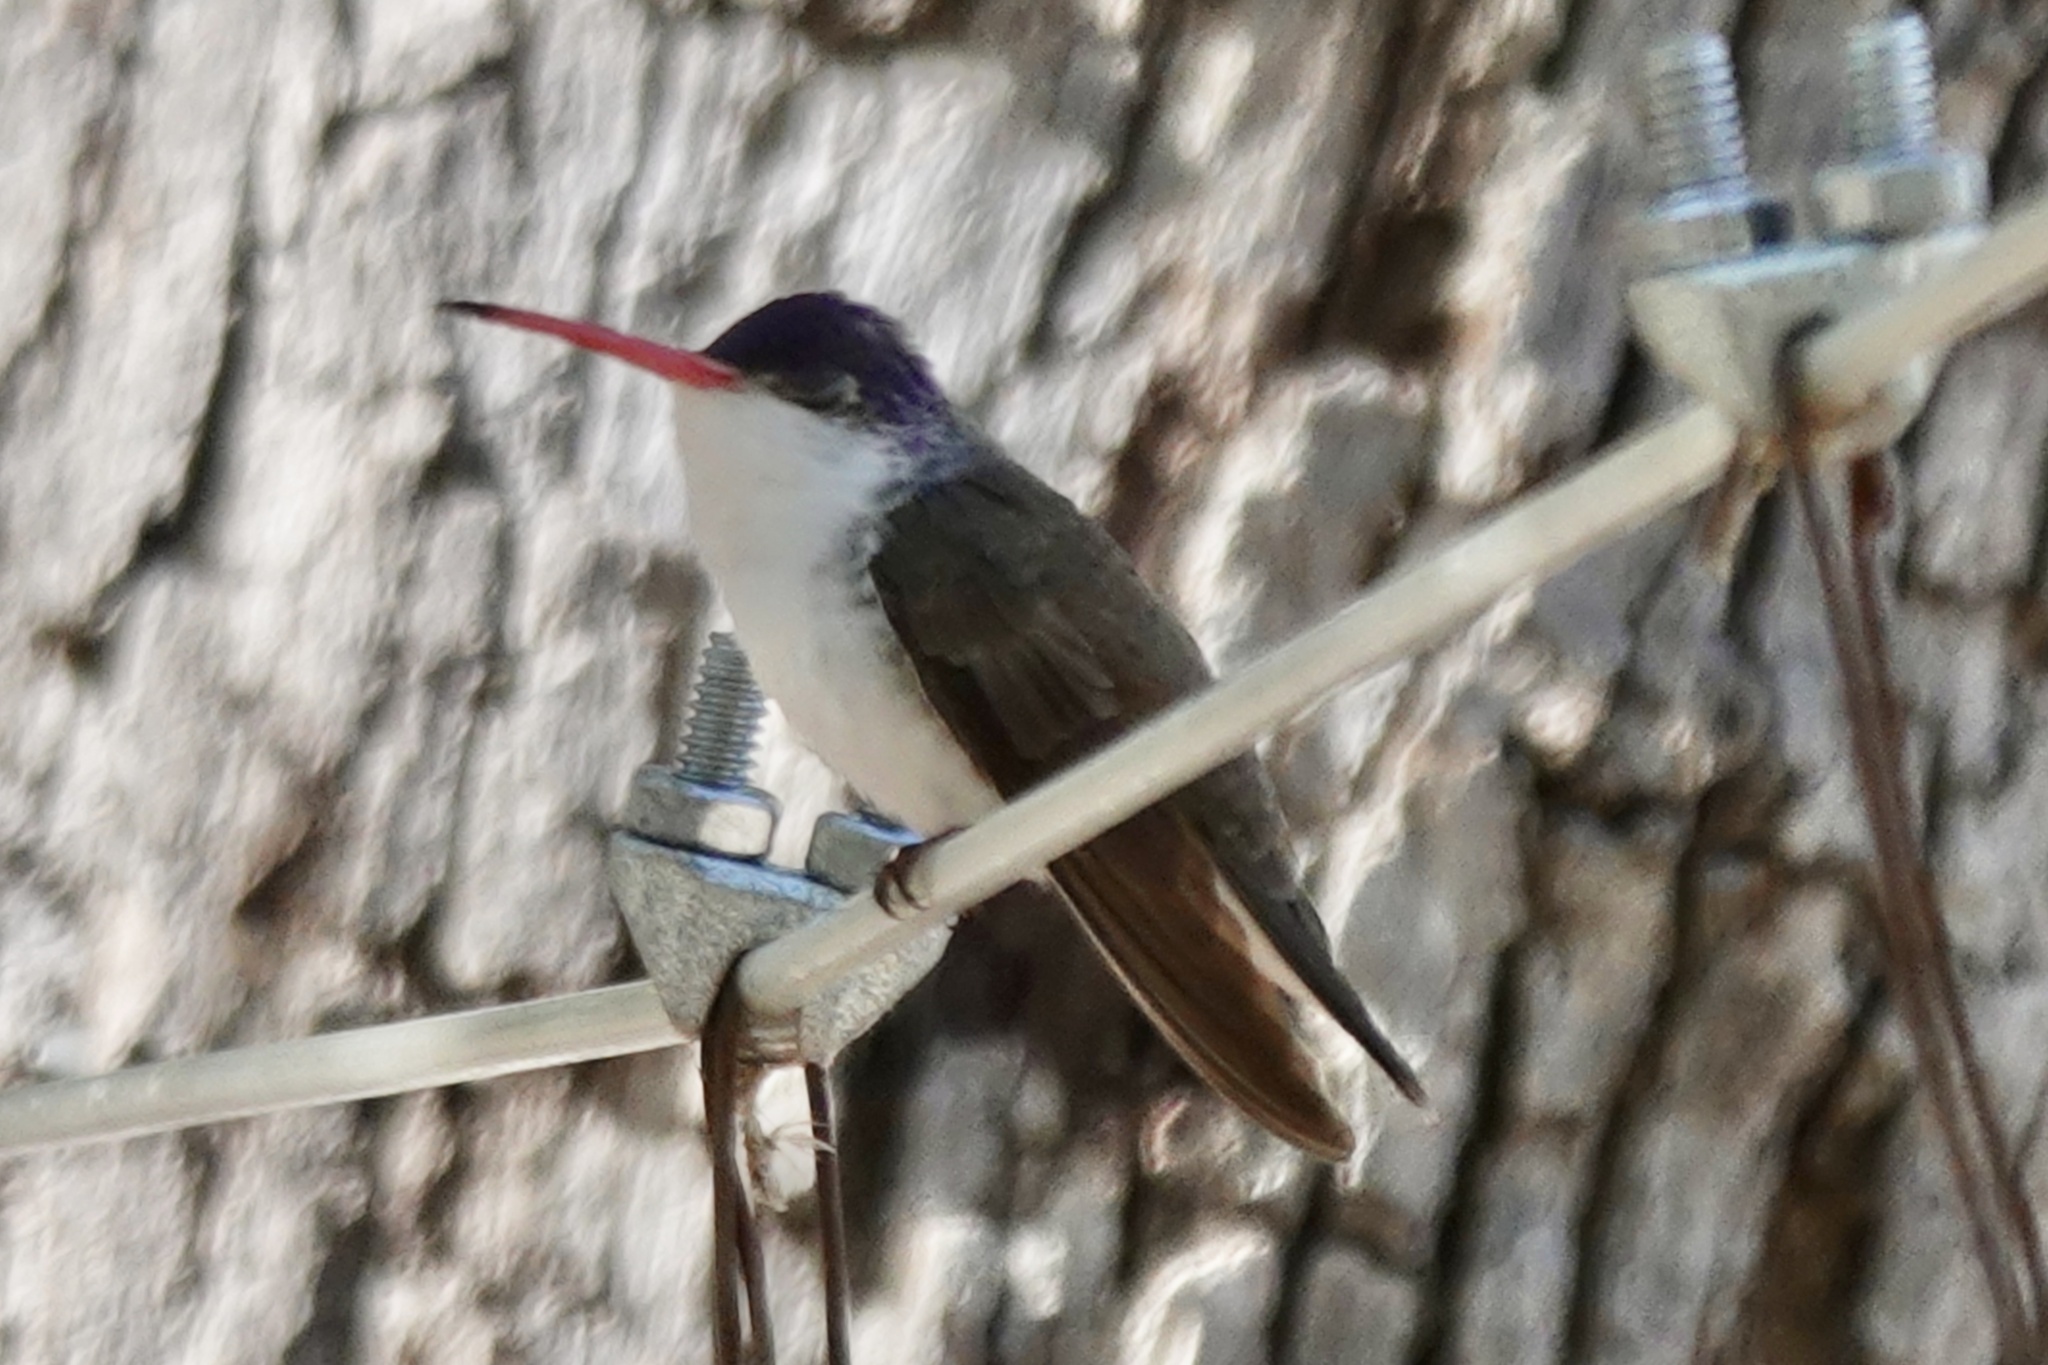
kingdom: Animalia
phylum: Chordata
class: Aves
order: Apodiformes
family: Trochilidae
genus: Leucolia
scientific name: Leucolia violiceps
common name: Violet-crowned hummingbird
